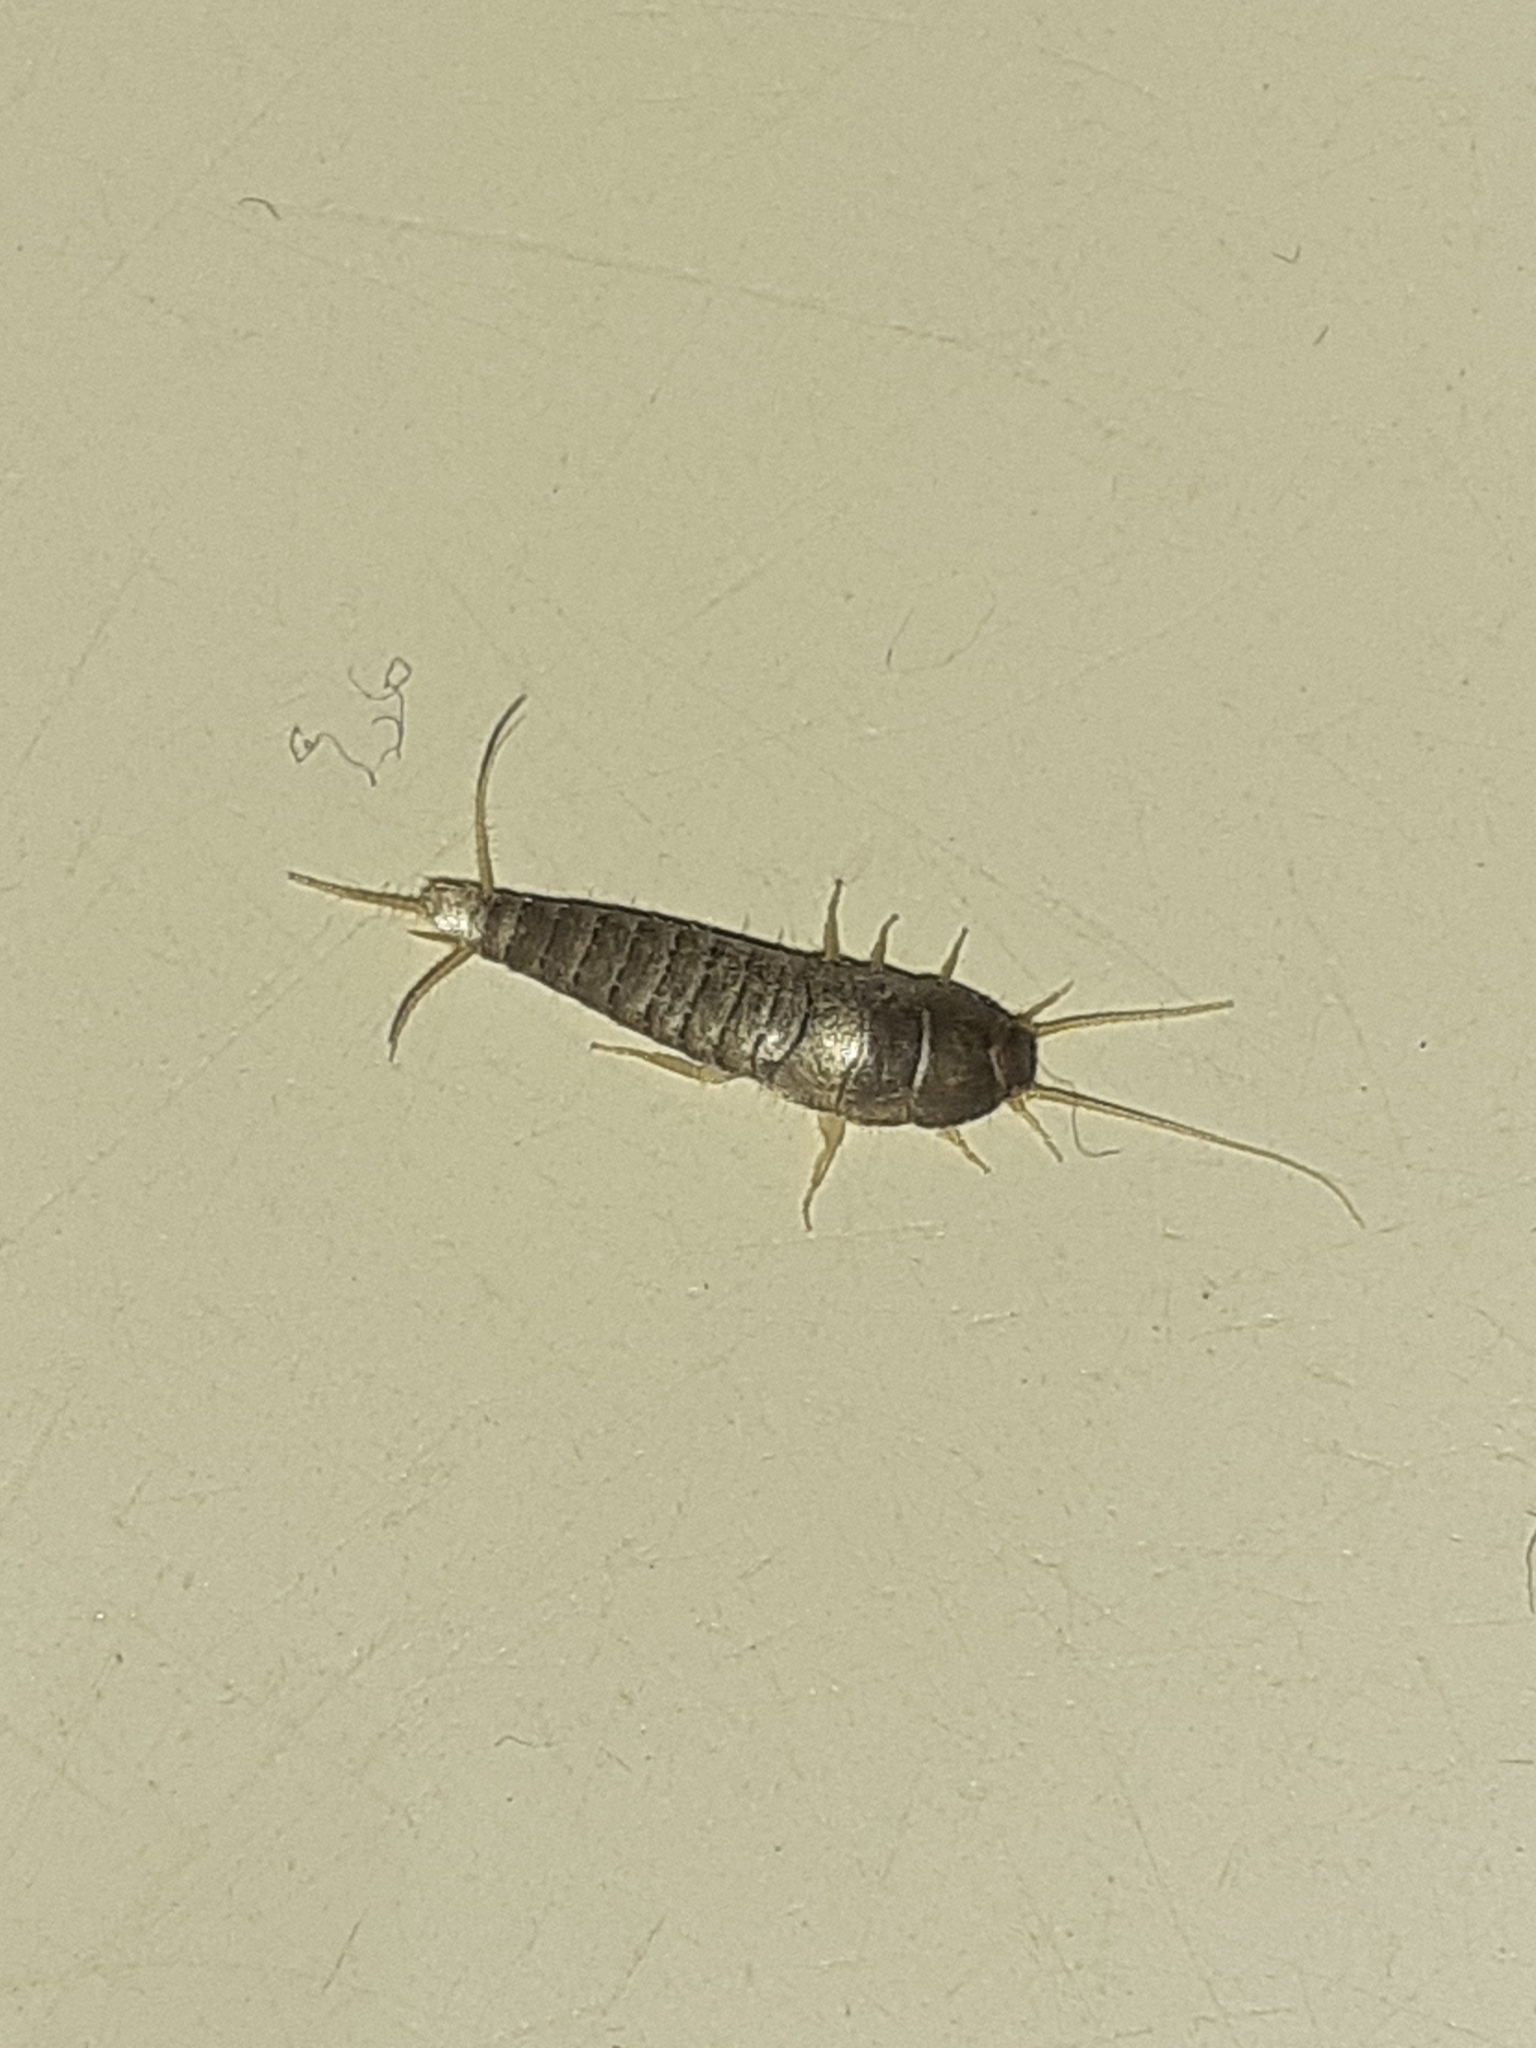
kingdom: Animalia
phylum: Arthropoda
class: Insecta
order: Zygentoma
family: Lepismatidae
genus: Lepisma
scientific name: Lepisma saccharinum
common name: Silverfish
